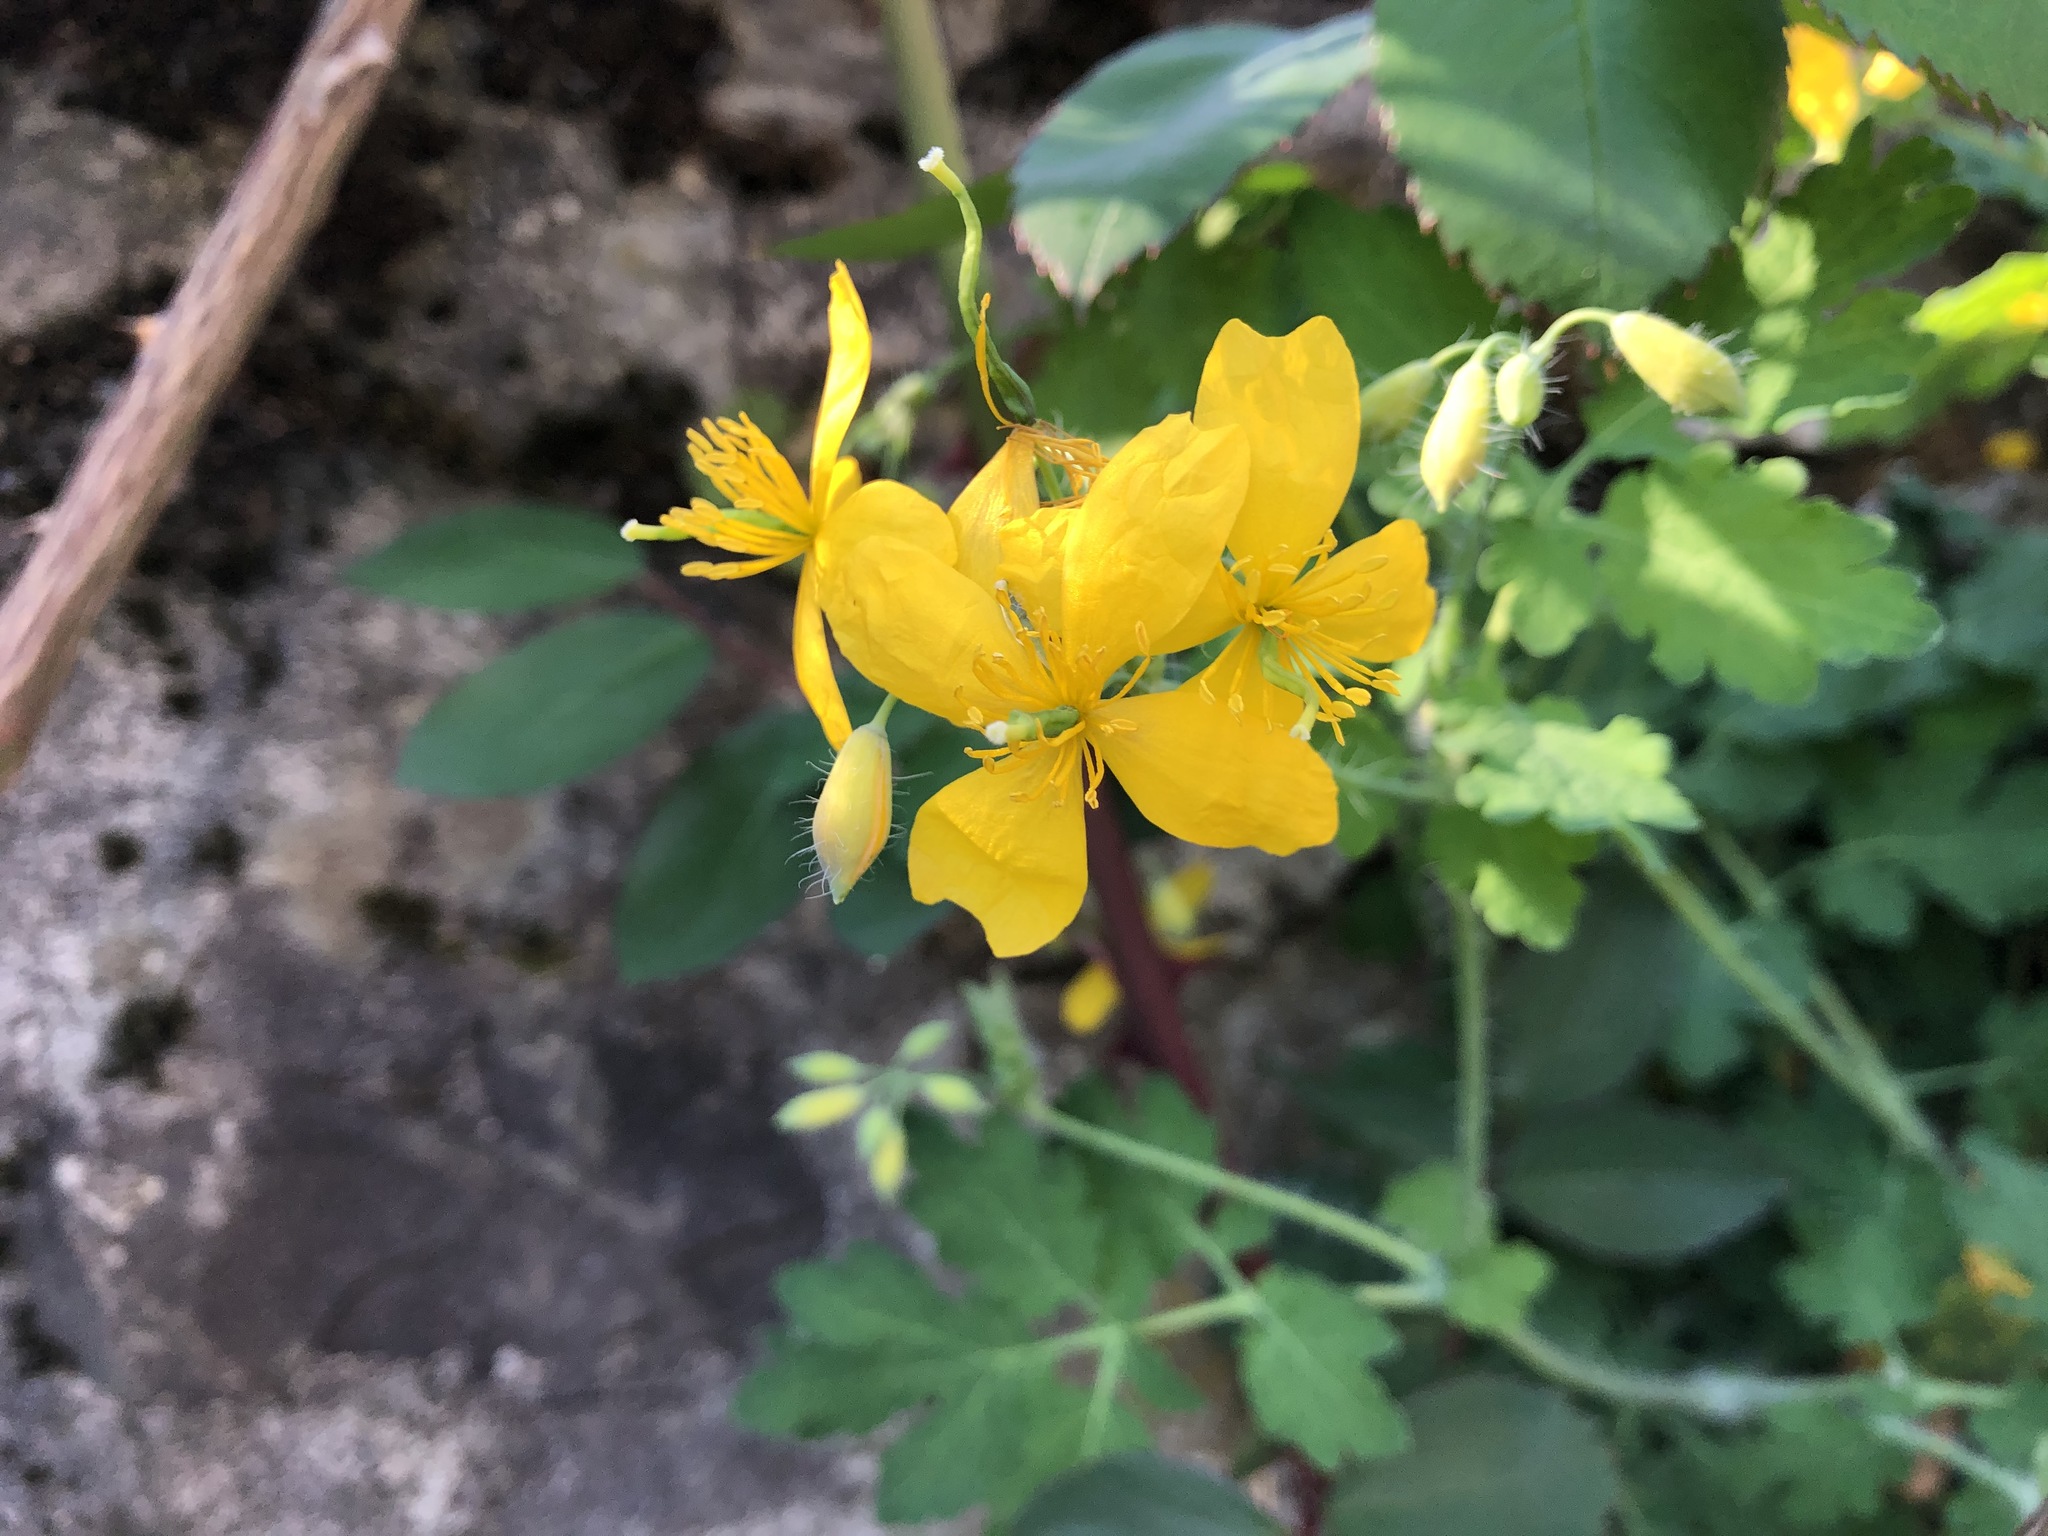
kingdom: Plantae
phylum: Tracheophyta
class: Magnoliopsida
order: Ranunculales
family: Papaveraceae
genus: Chelidonium
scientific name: Chelidonium majus
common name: Greater celandine
